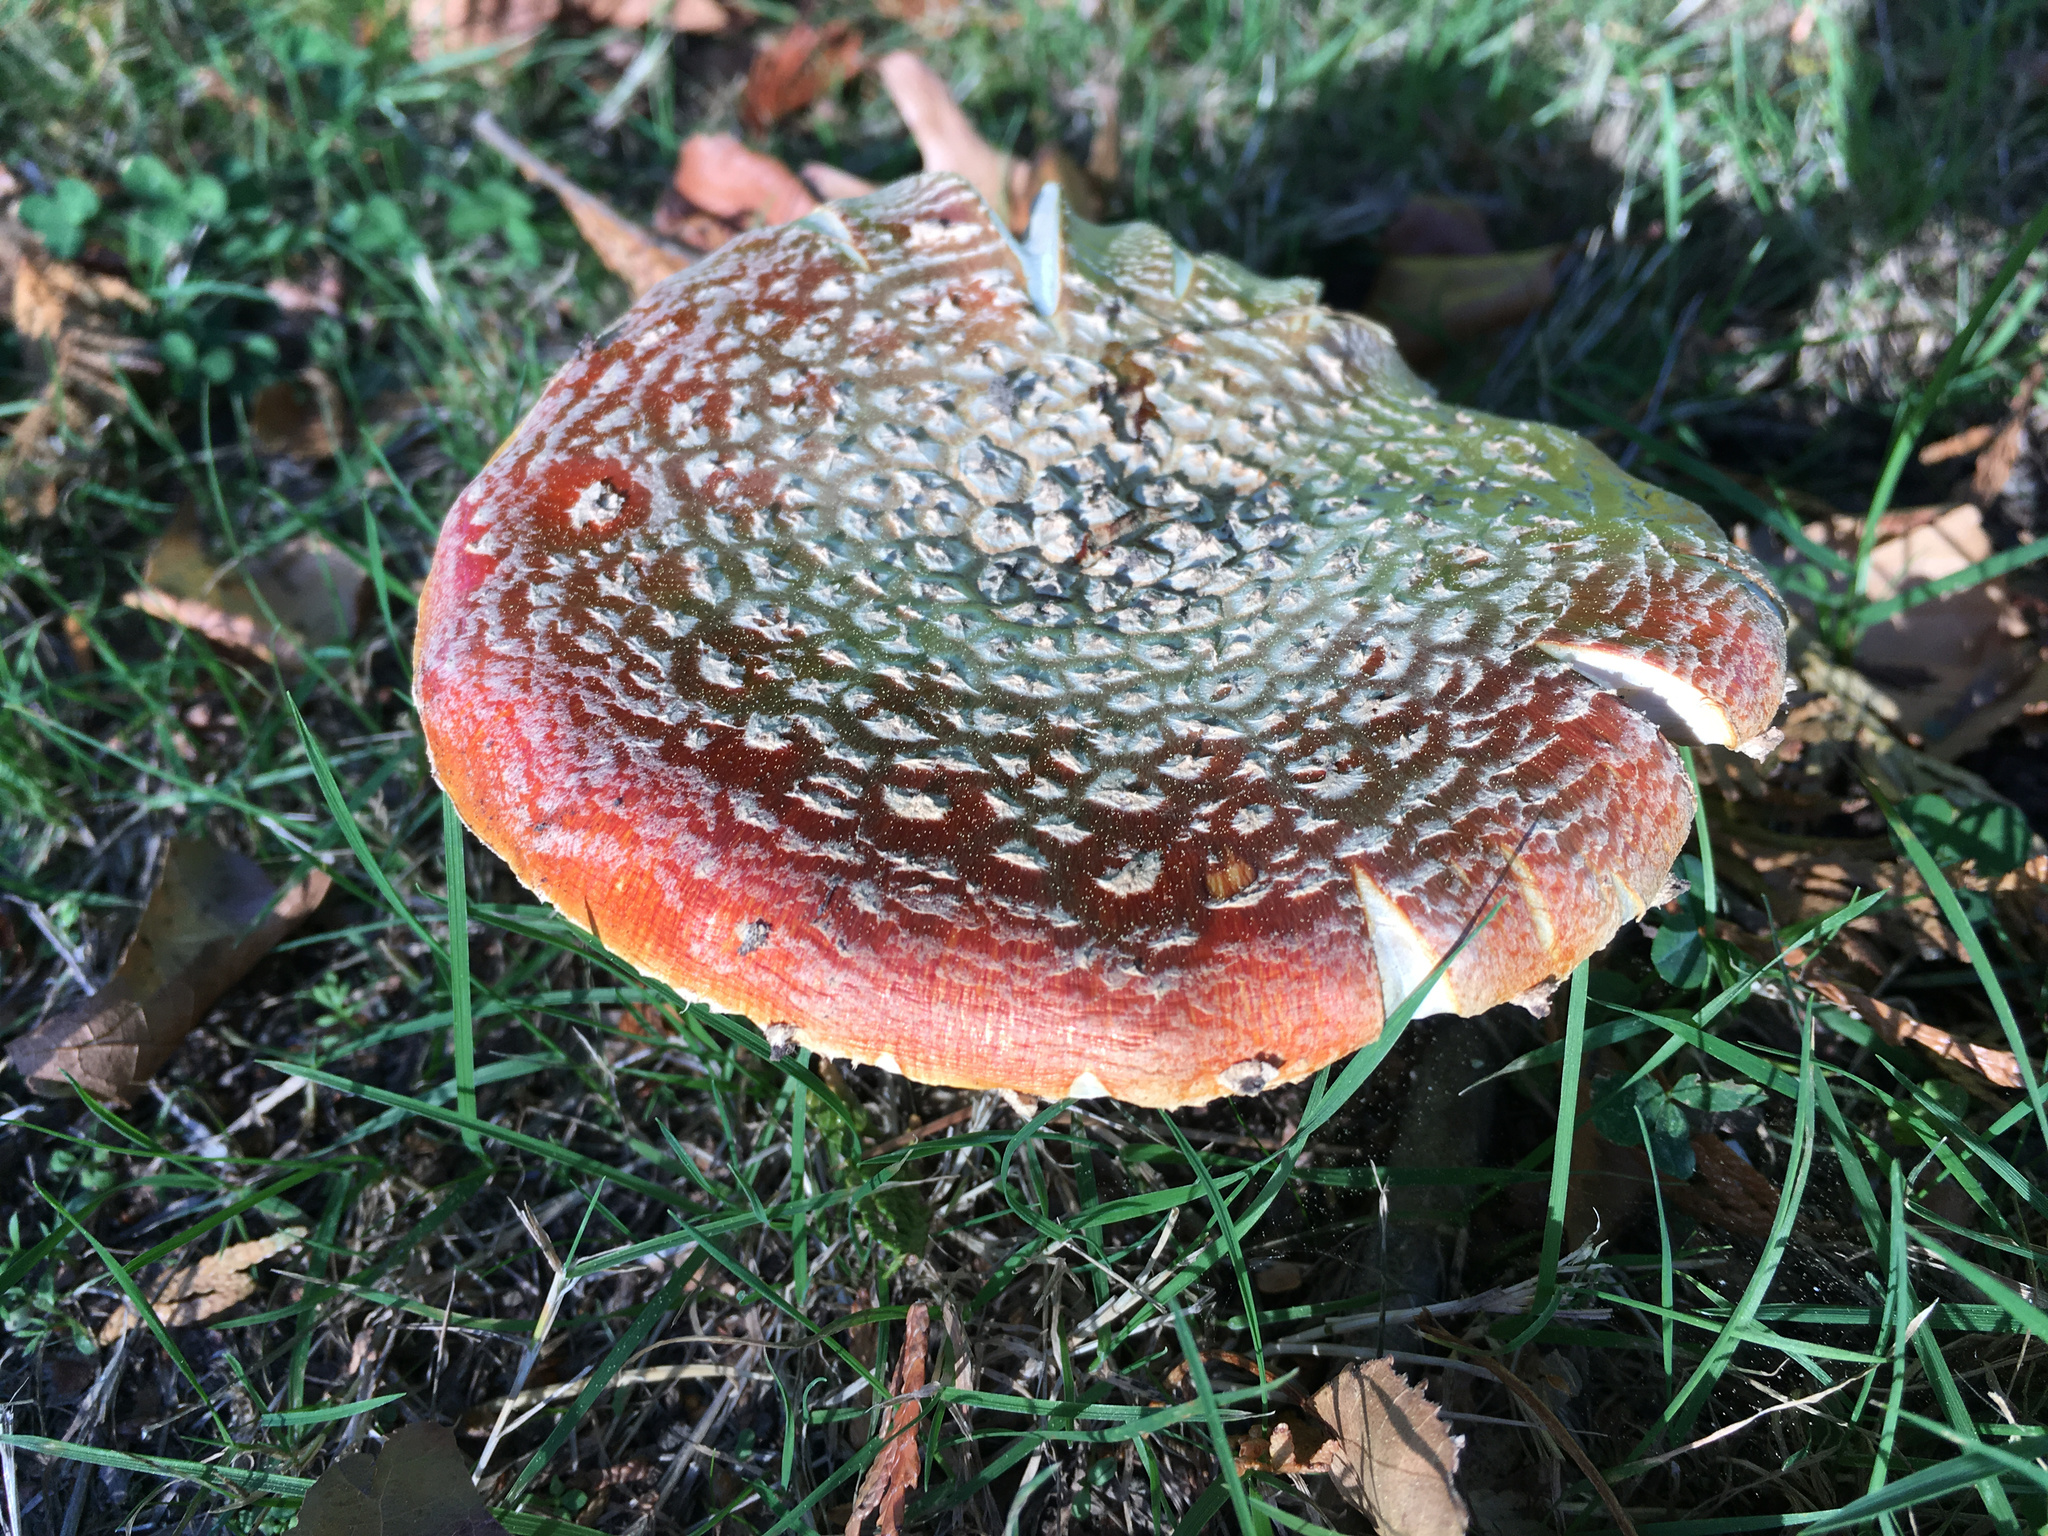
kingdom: Fungi
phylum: Basidiomycota
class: Agaricomycetes
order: Agaricales
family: Amanitaceae
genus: Amanita
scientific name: Amanita muscaria
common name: Fly agaric
